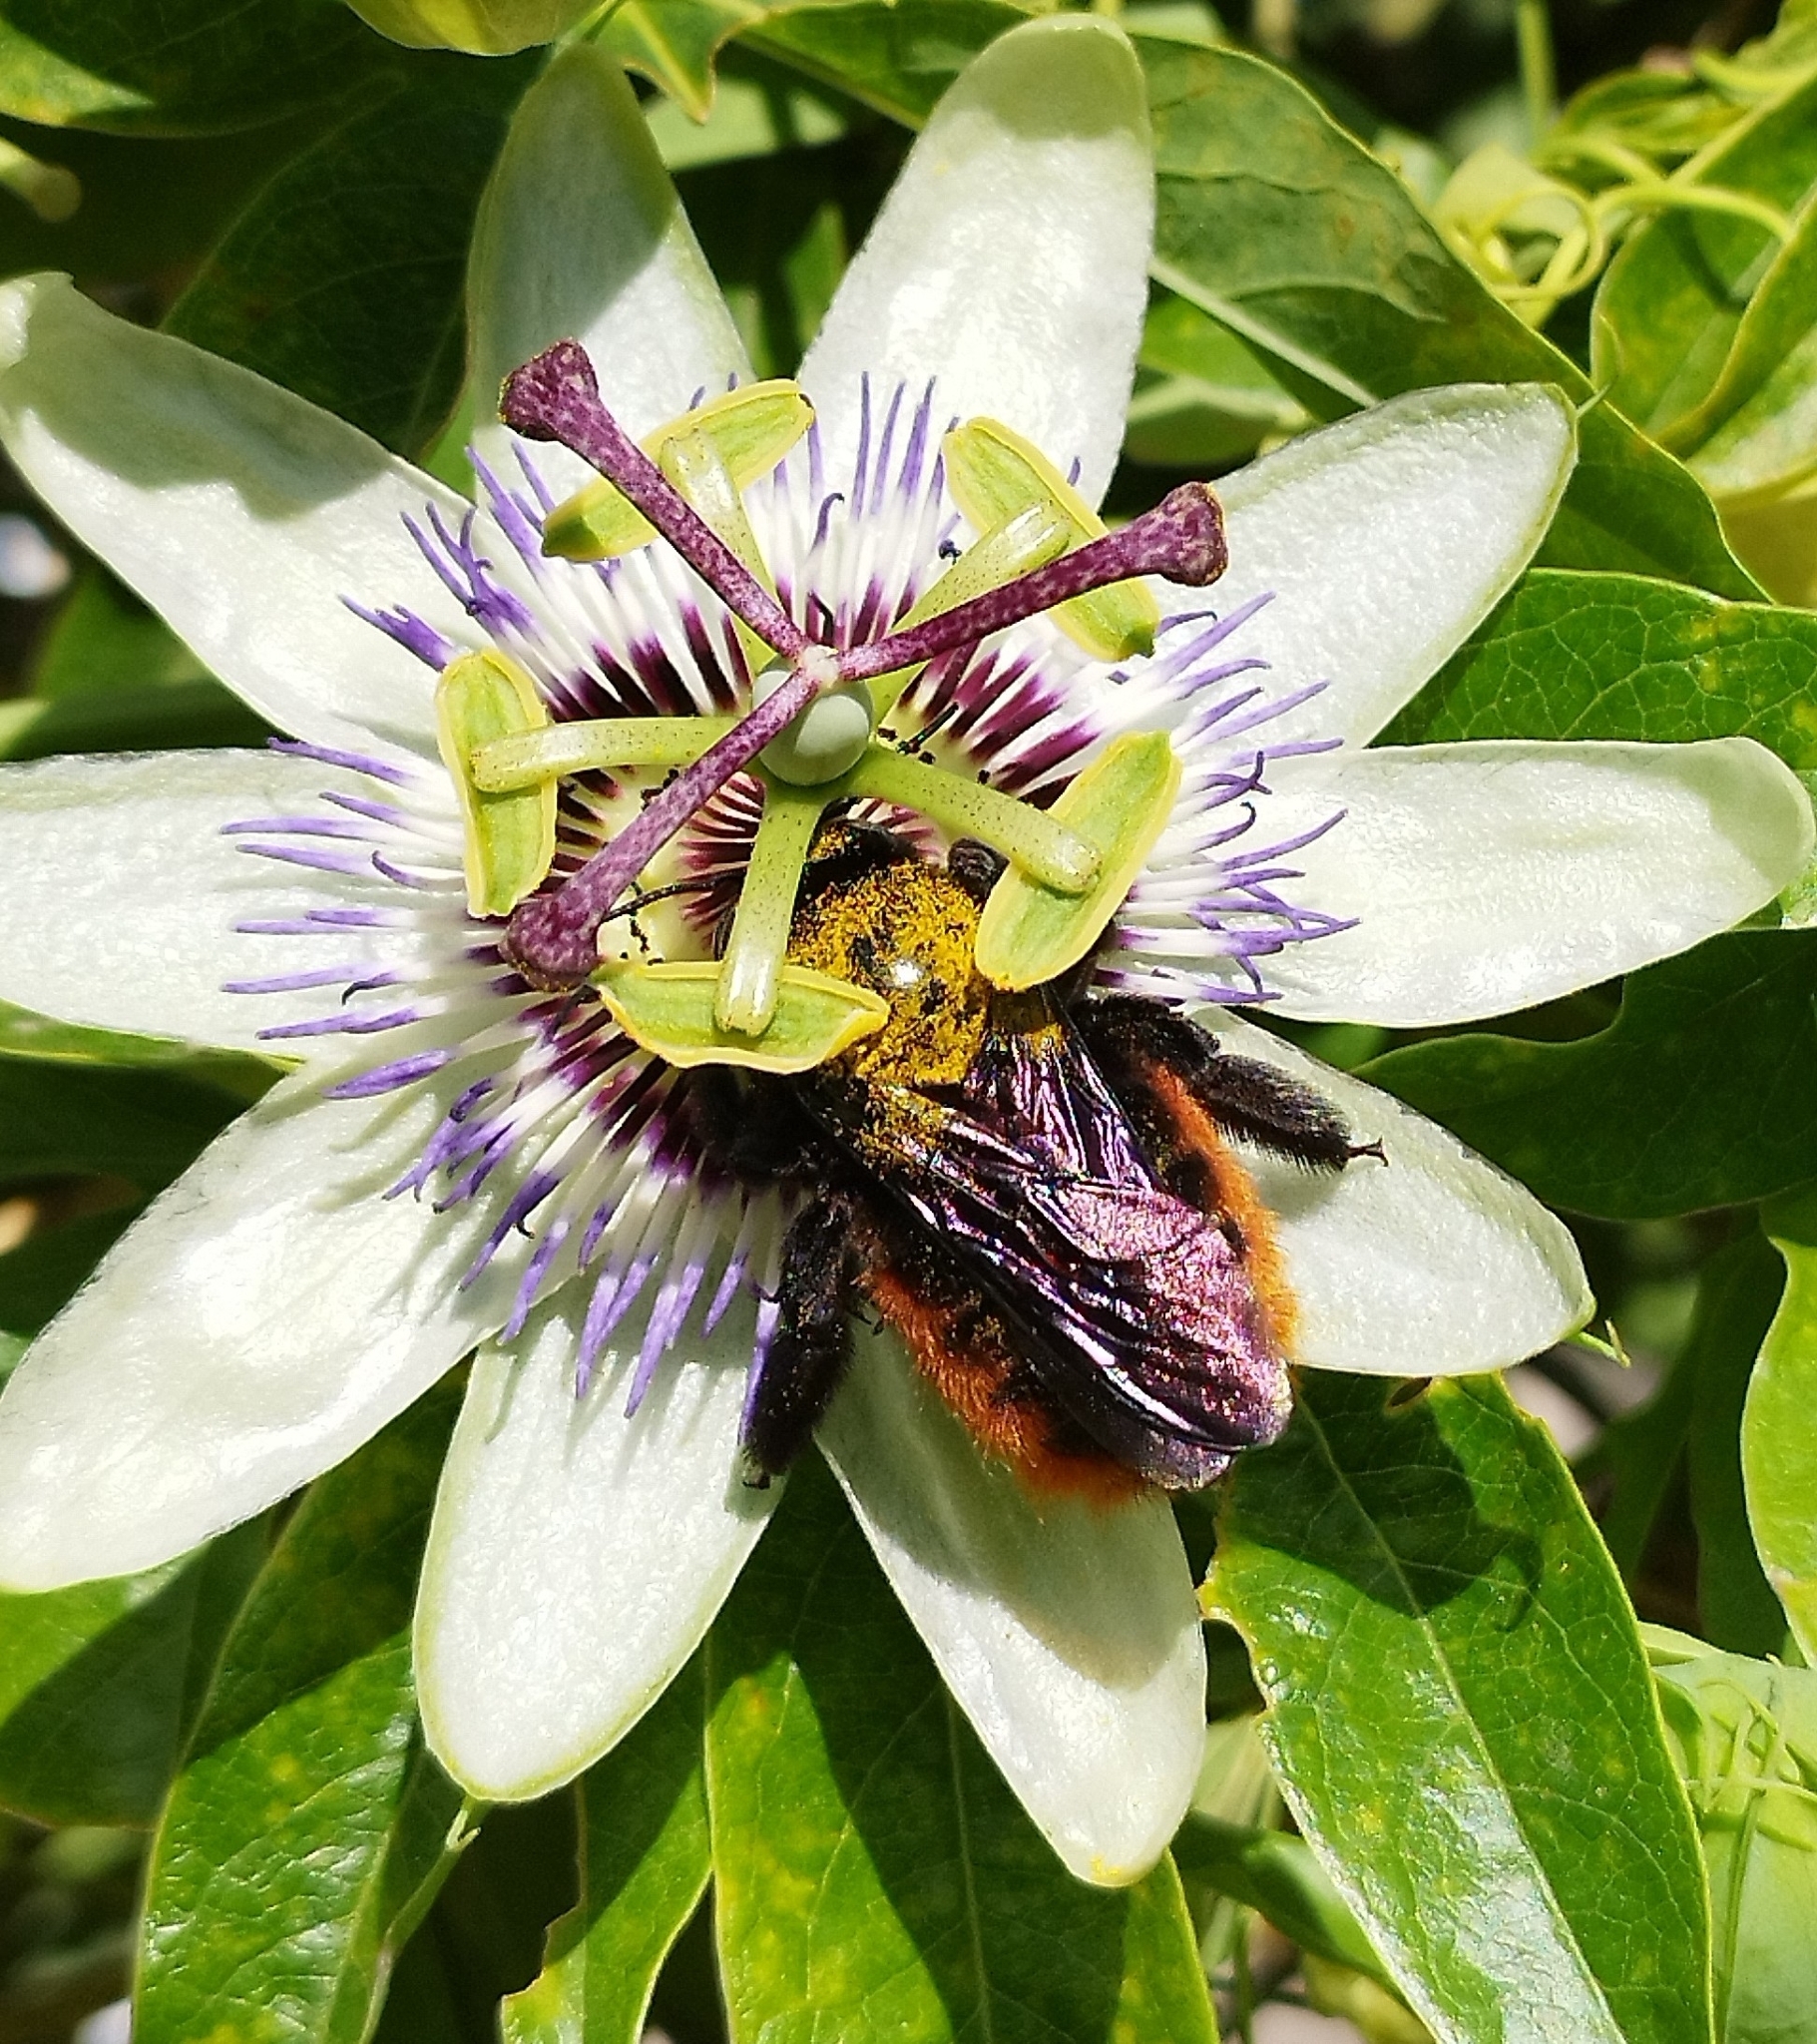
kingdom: Animalia
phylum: Arthropoda
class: Insecta
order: Hymenoptera
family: Apidae
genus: Xylocopa
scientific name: Xylocopa augusti
